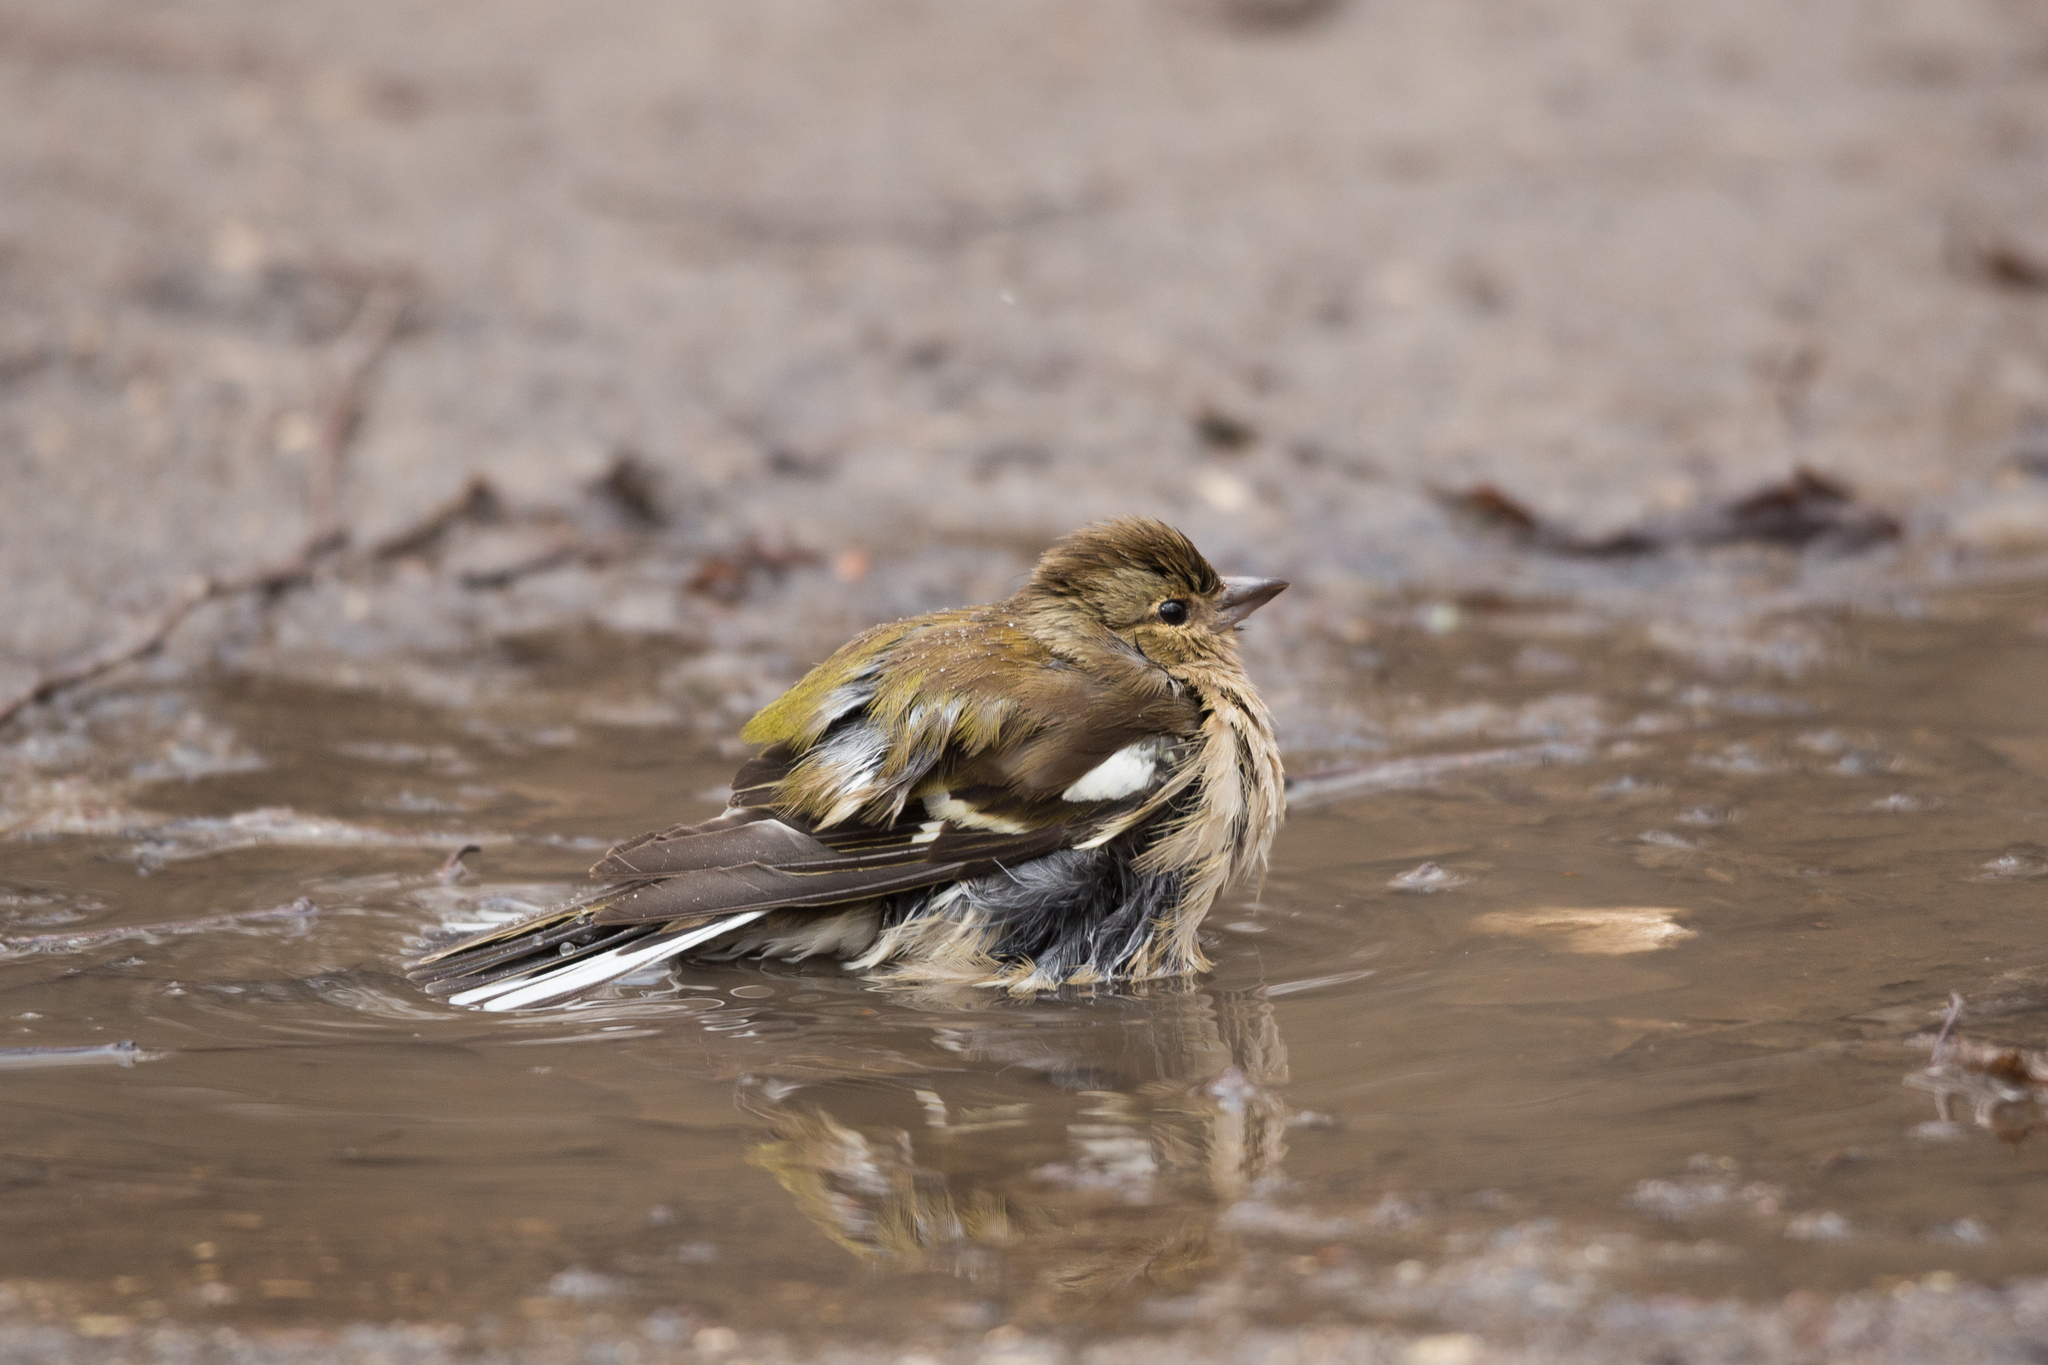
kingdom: Animalia
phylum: Chordata
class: Aves
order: Passeriformes
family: Fringillidae
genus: Fringilla
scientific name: Fringilla coelebs
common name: Common chaffinch
